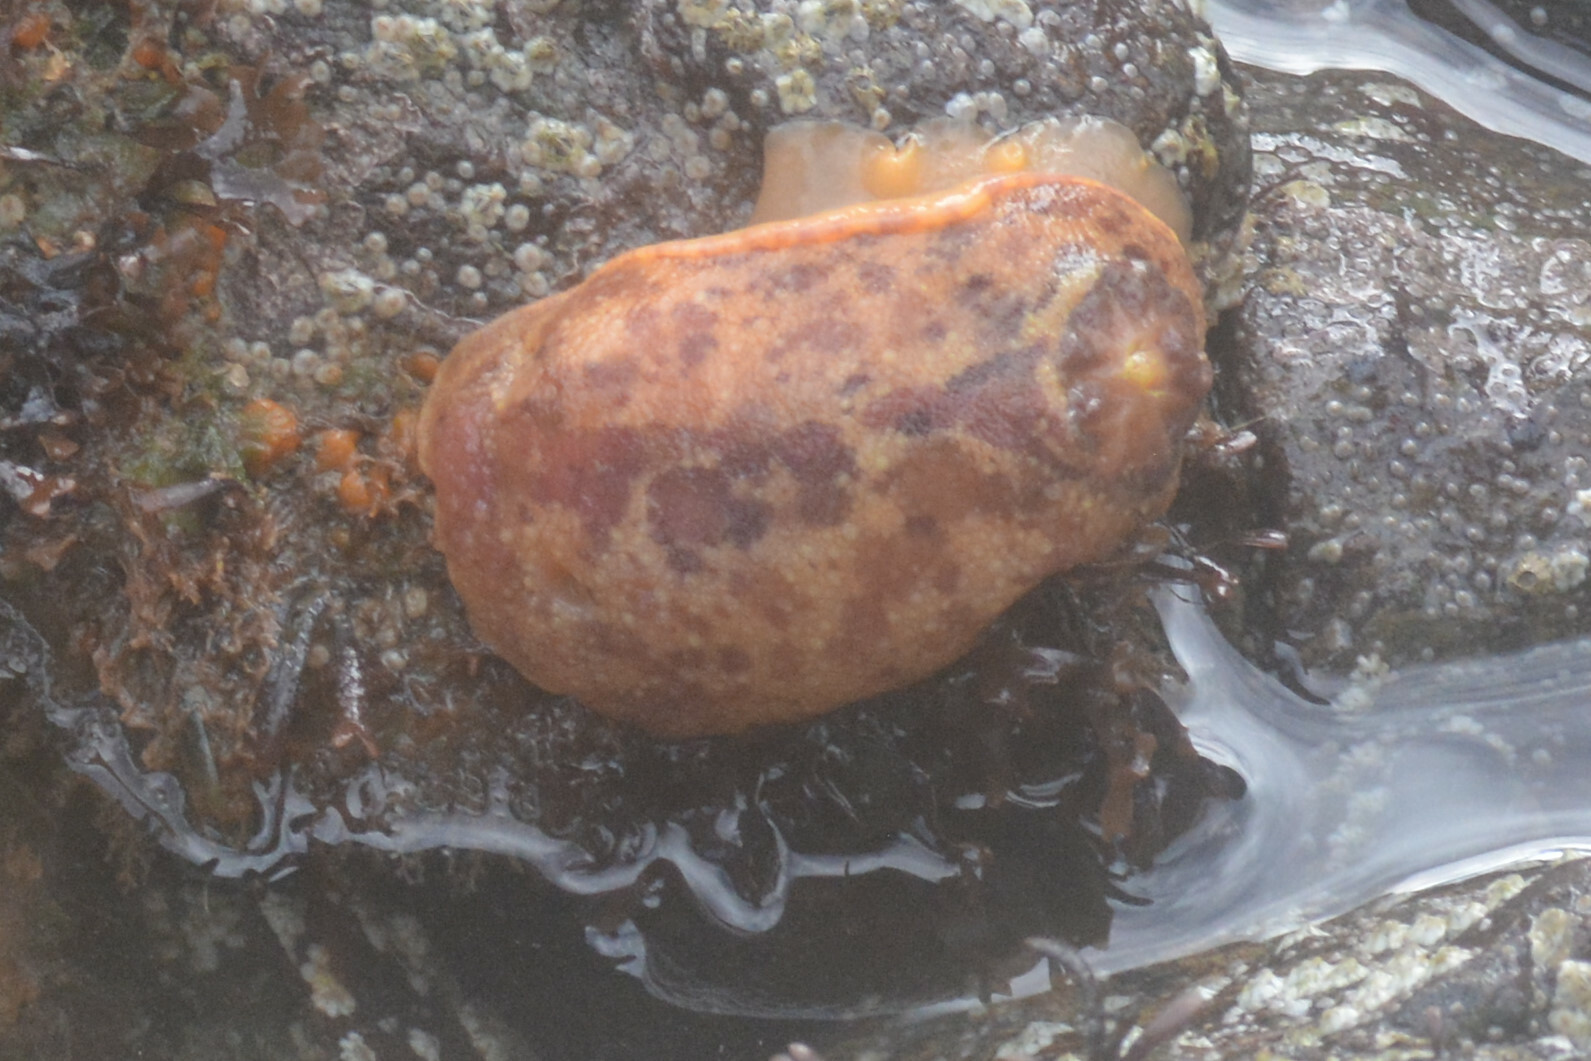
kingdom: Animalia
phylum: Mollusca
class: Gastropoda
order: Nudibranchia
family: Dorididae
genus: Doris
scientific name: Doris pseudoargus
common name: Sea lemon
